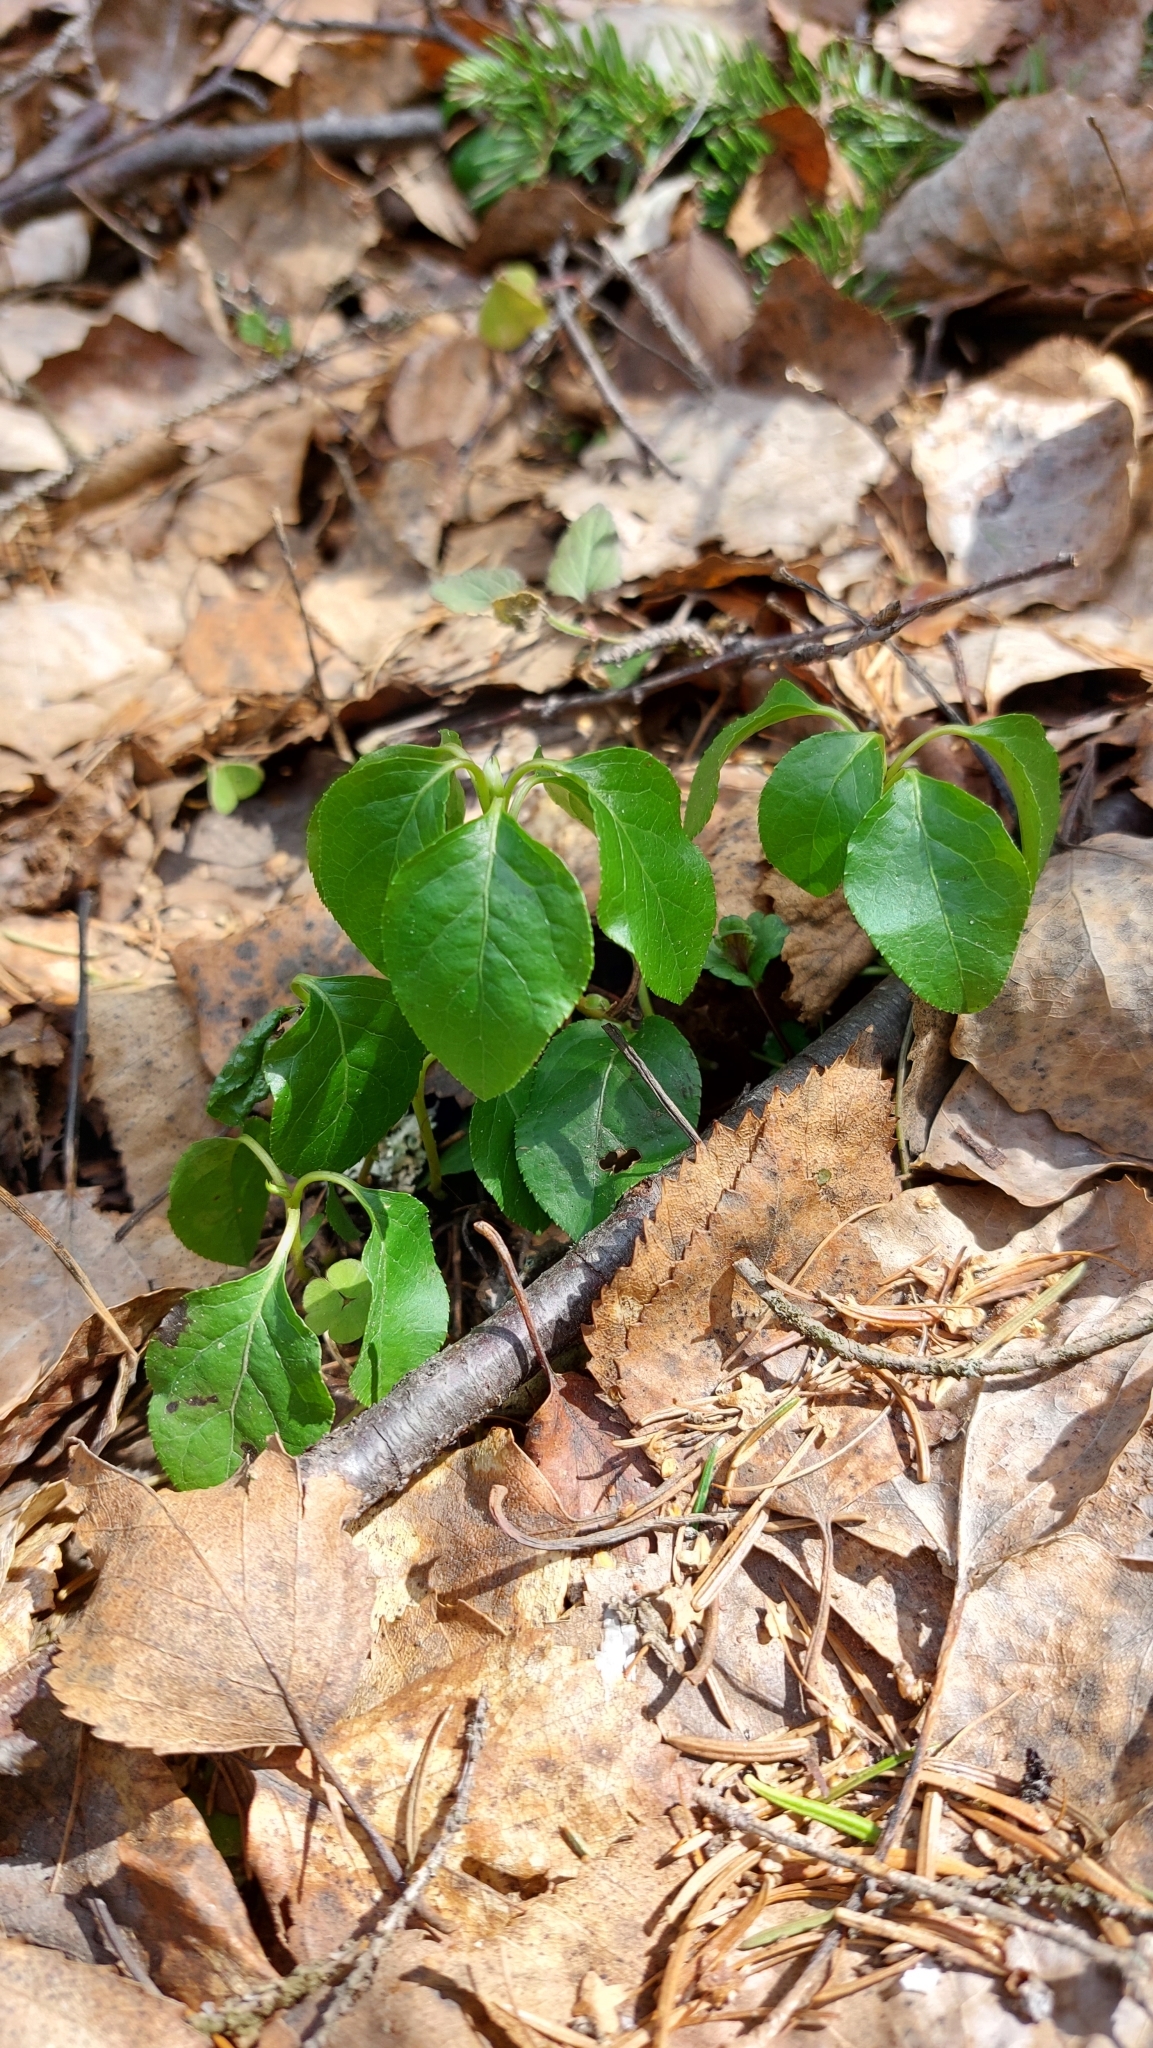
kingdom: Plantae
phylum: Tracheophyta
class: Magnoliopsida
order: Ericales
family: Ericaceae
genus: Orthilia
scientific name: Orthilia secunda
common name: One-sided orthilia
